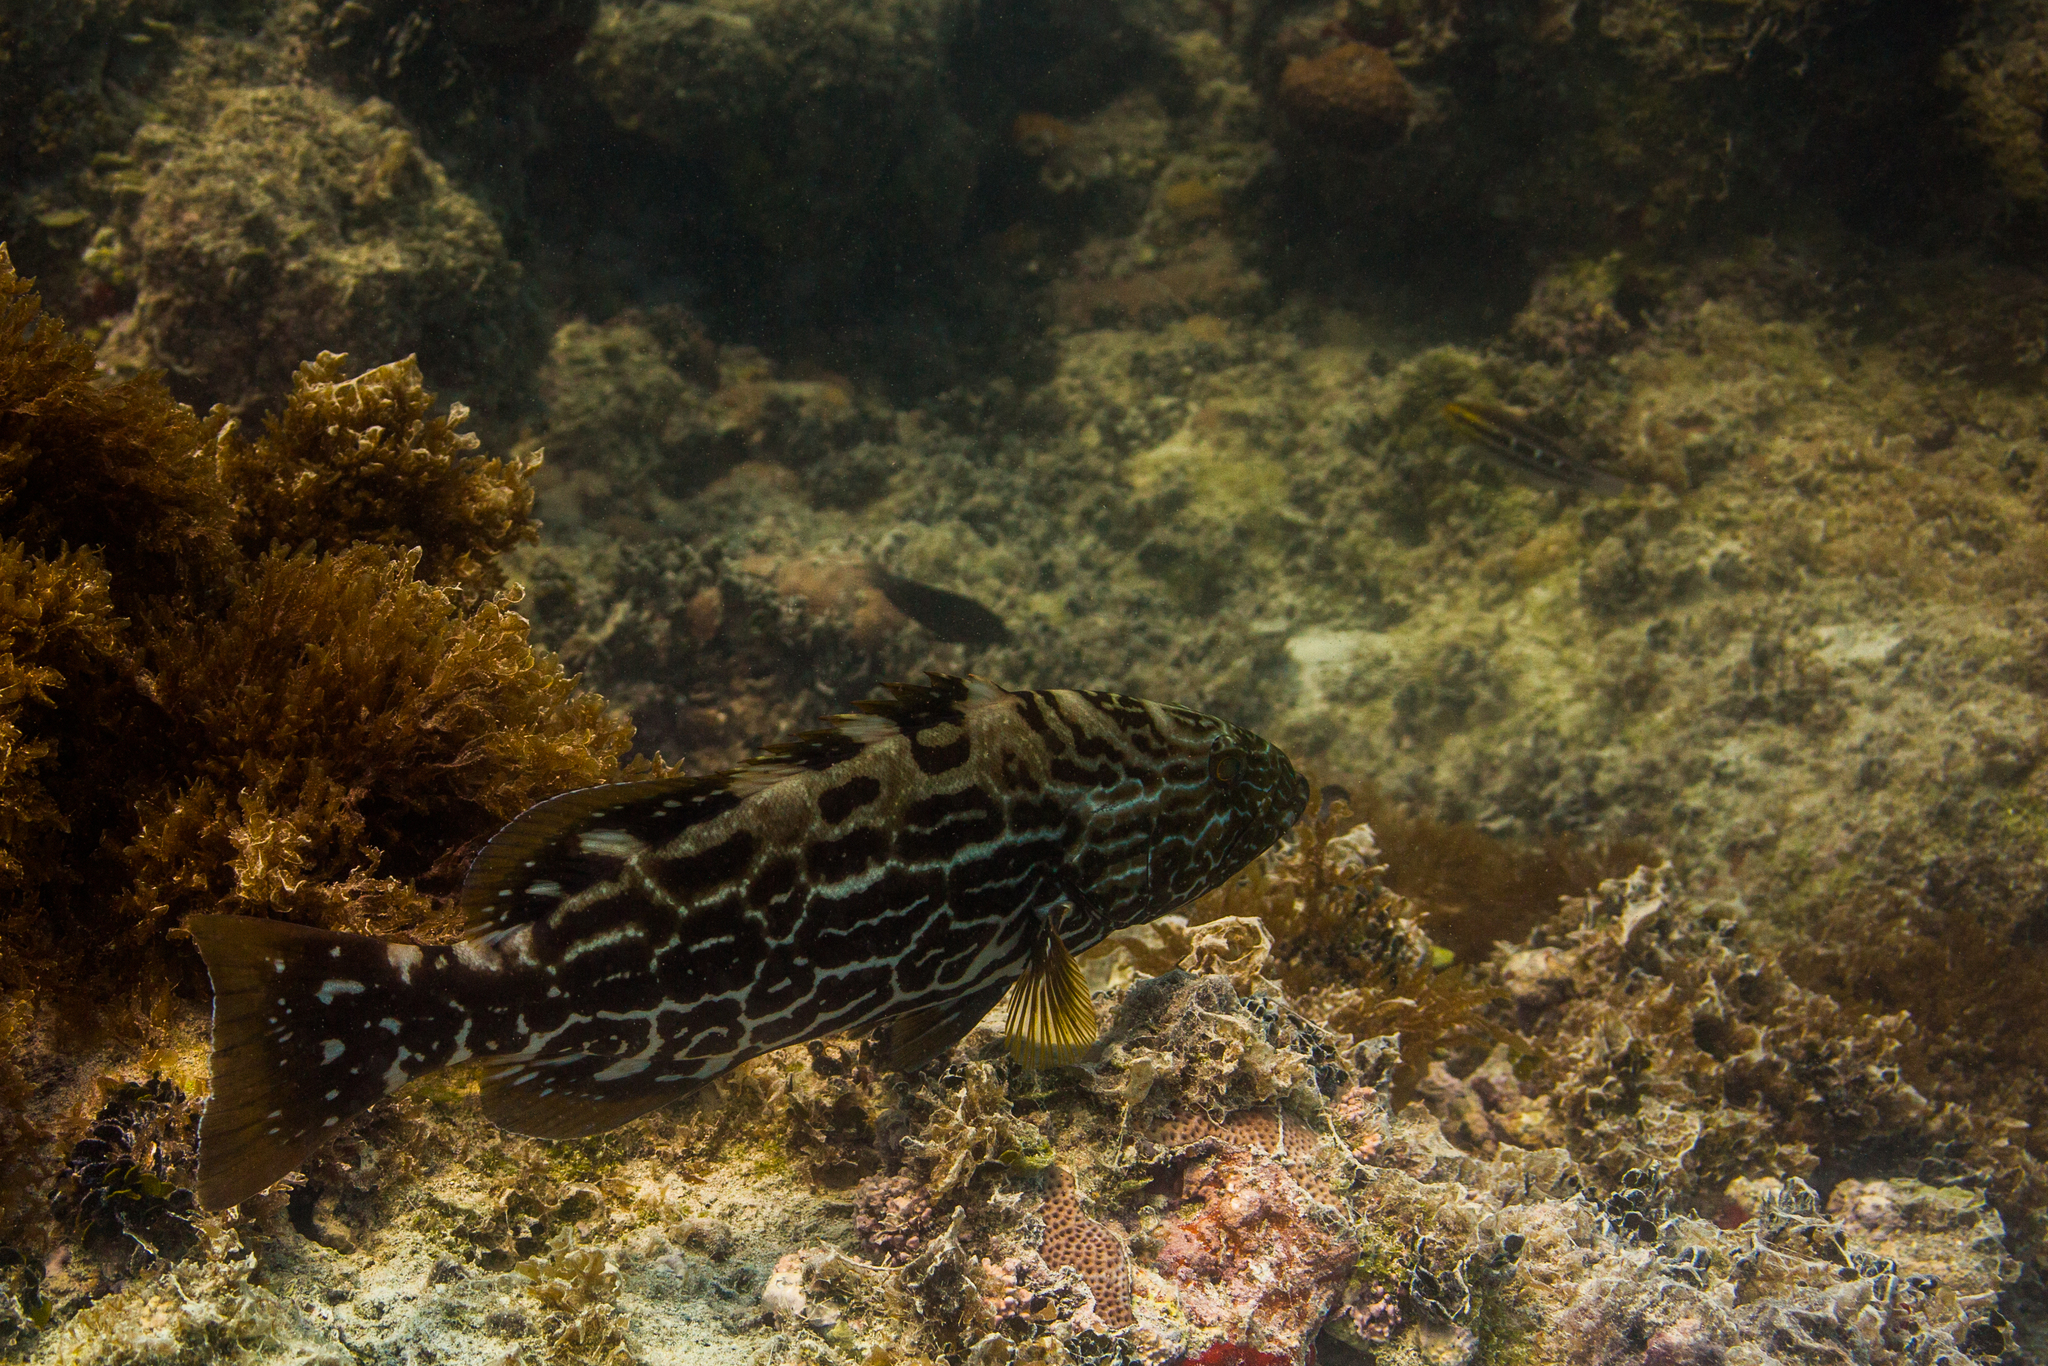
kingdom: Animalia
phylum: Chordata
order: Perciformes
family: Serranidae
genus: Mycteroperca
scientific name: Mycteroperca bonaci
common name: Black grouper
